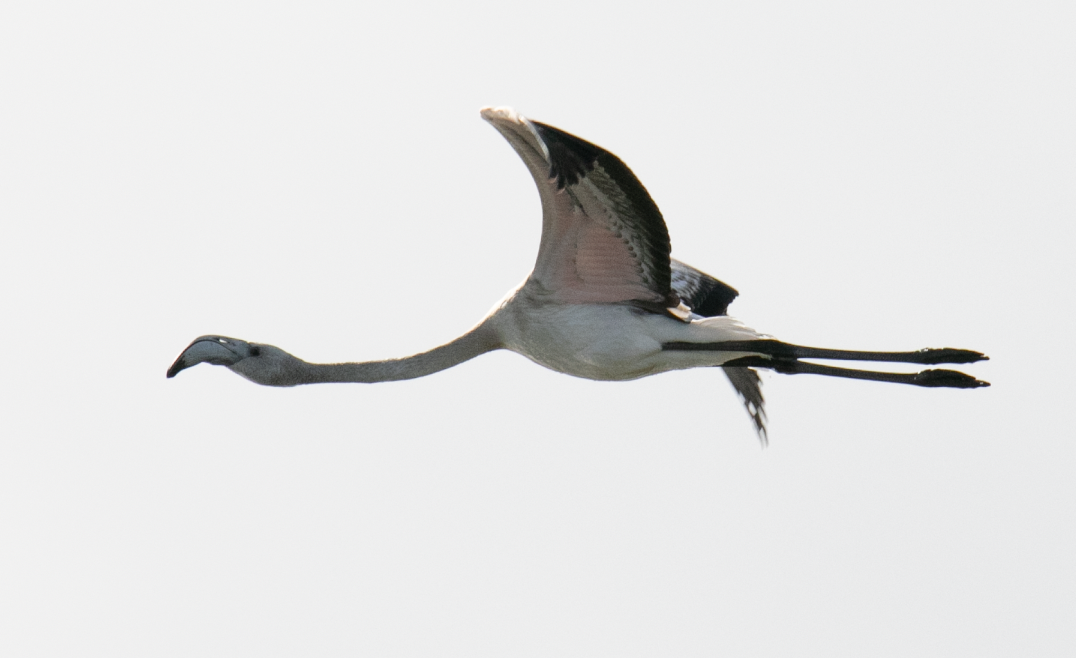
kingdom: Animalia
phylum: Chordata
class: Aves
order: Phoenicopteriformes
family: Phoenicopteridae
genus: Phoenicopterus
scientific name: Phoenicopterus roseus
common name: Greater flamingo
